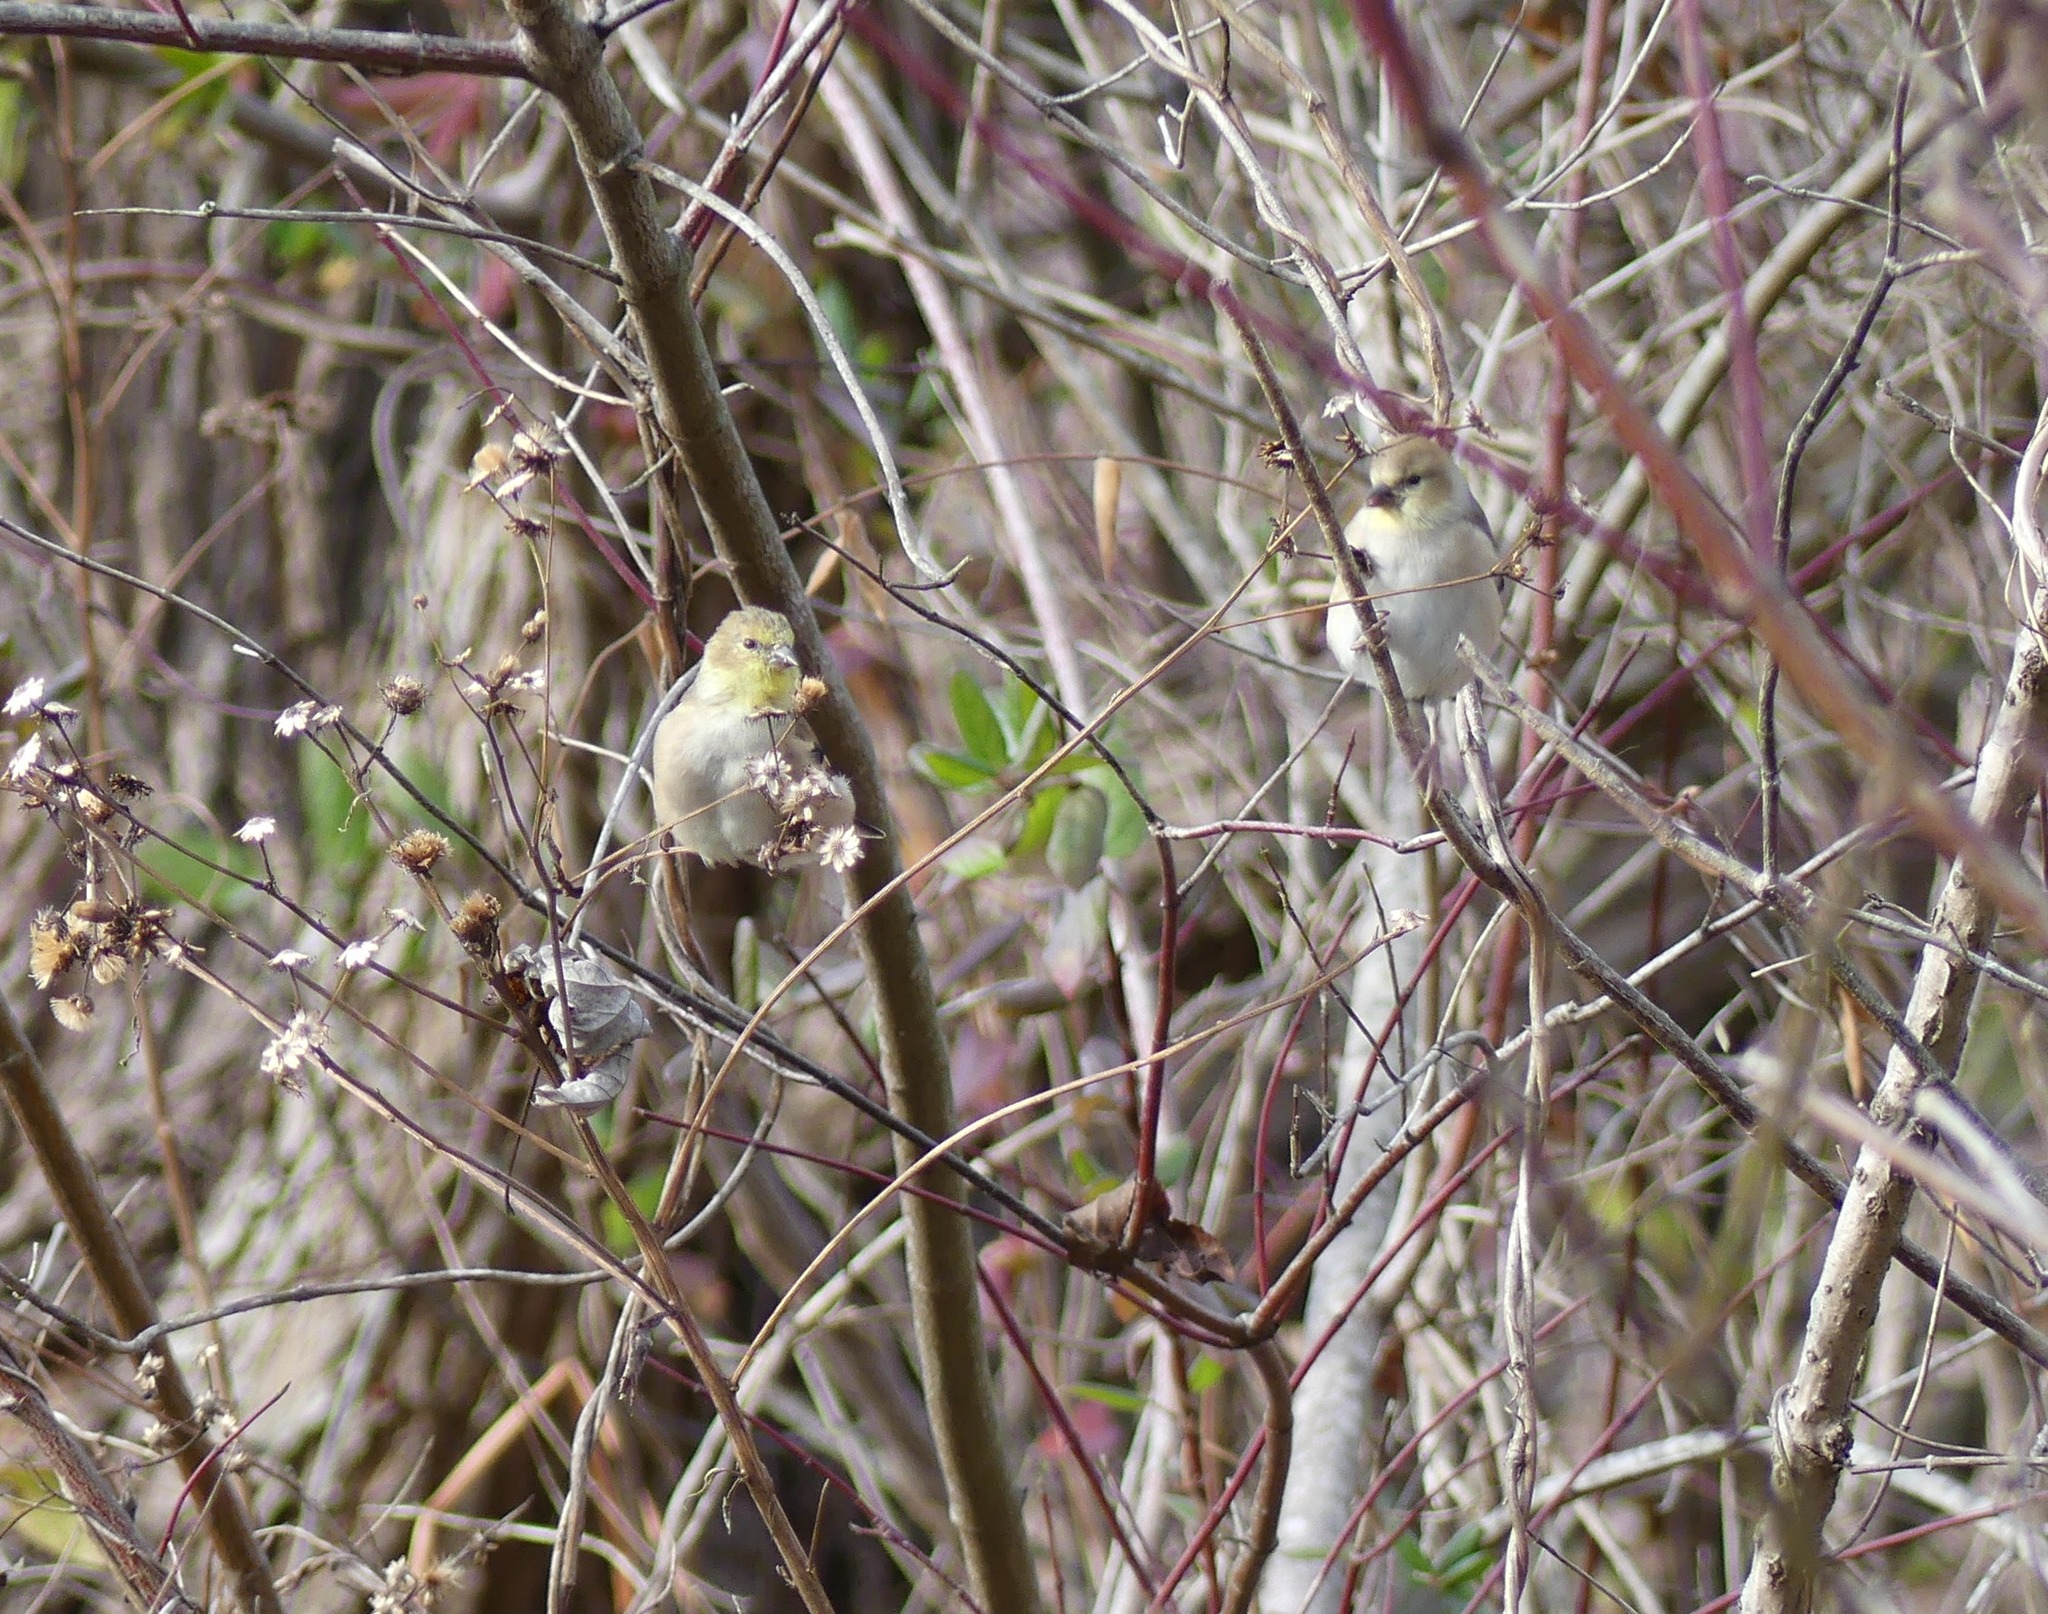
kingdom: Animalia
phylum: Chordata
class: Aves
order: Passeriformes
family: Fringillidae
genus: Spinus
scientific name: Spinus tristis
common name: American goldfinch
